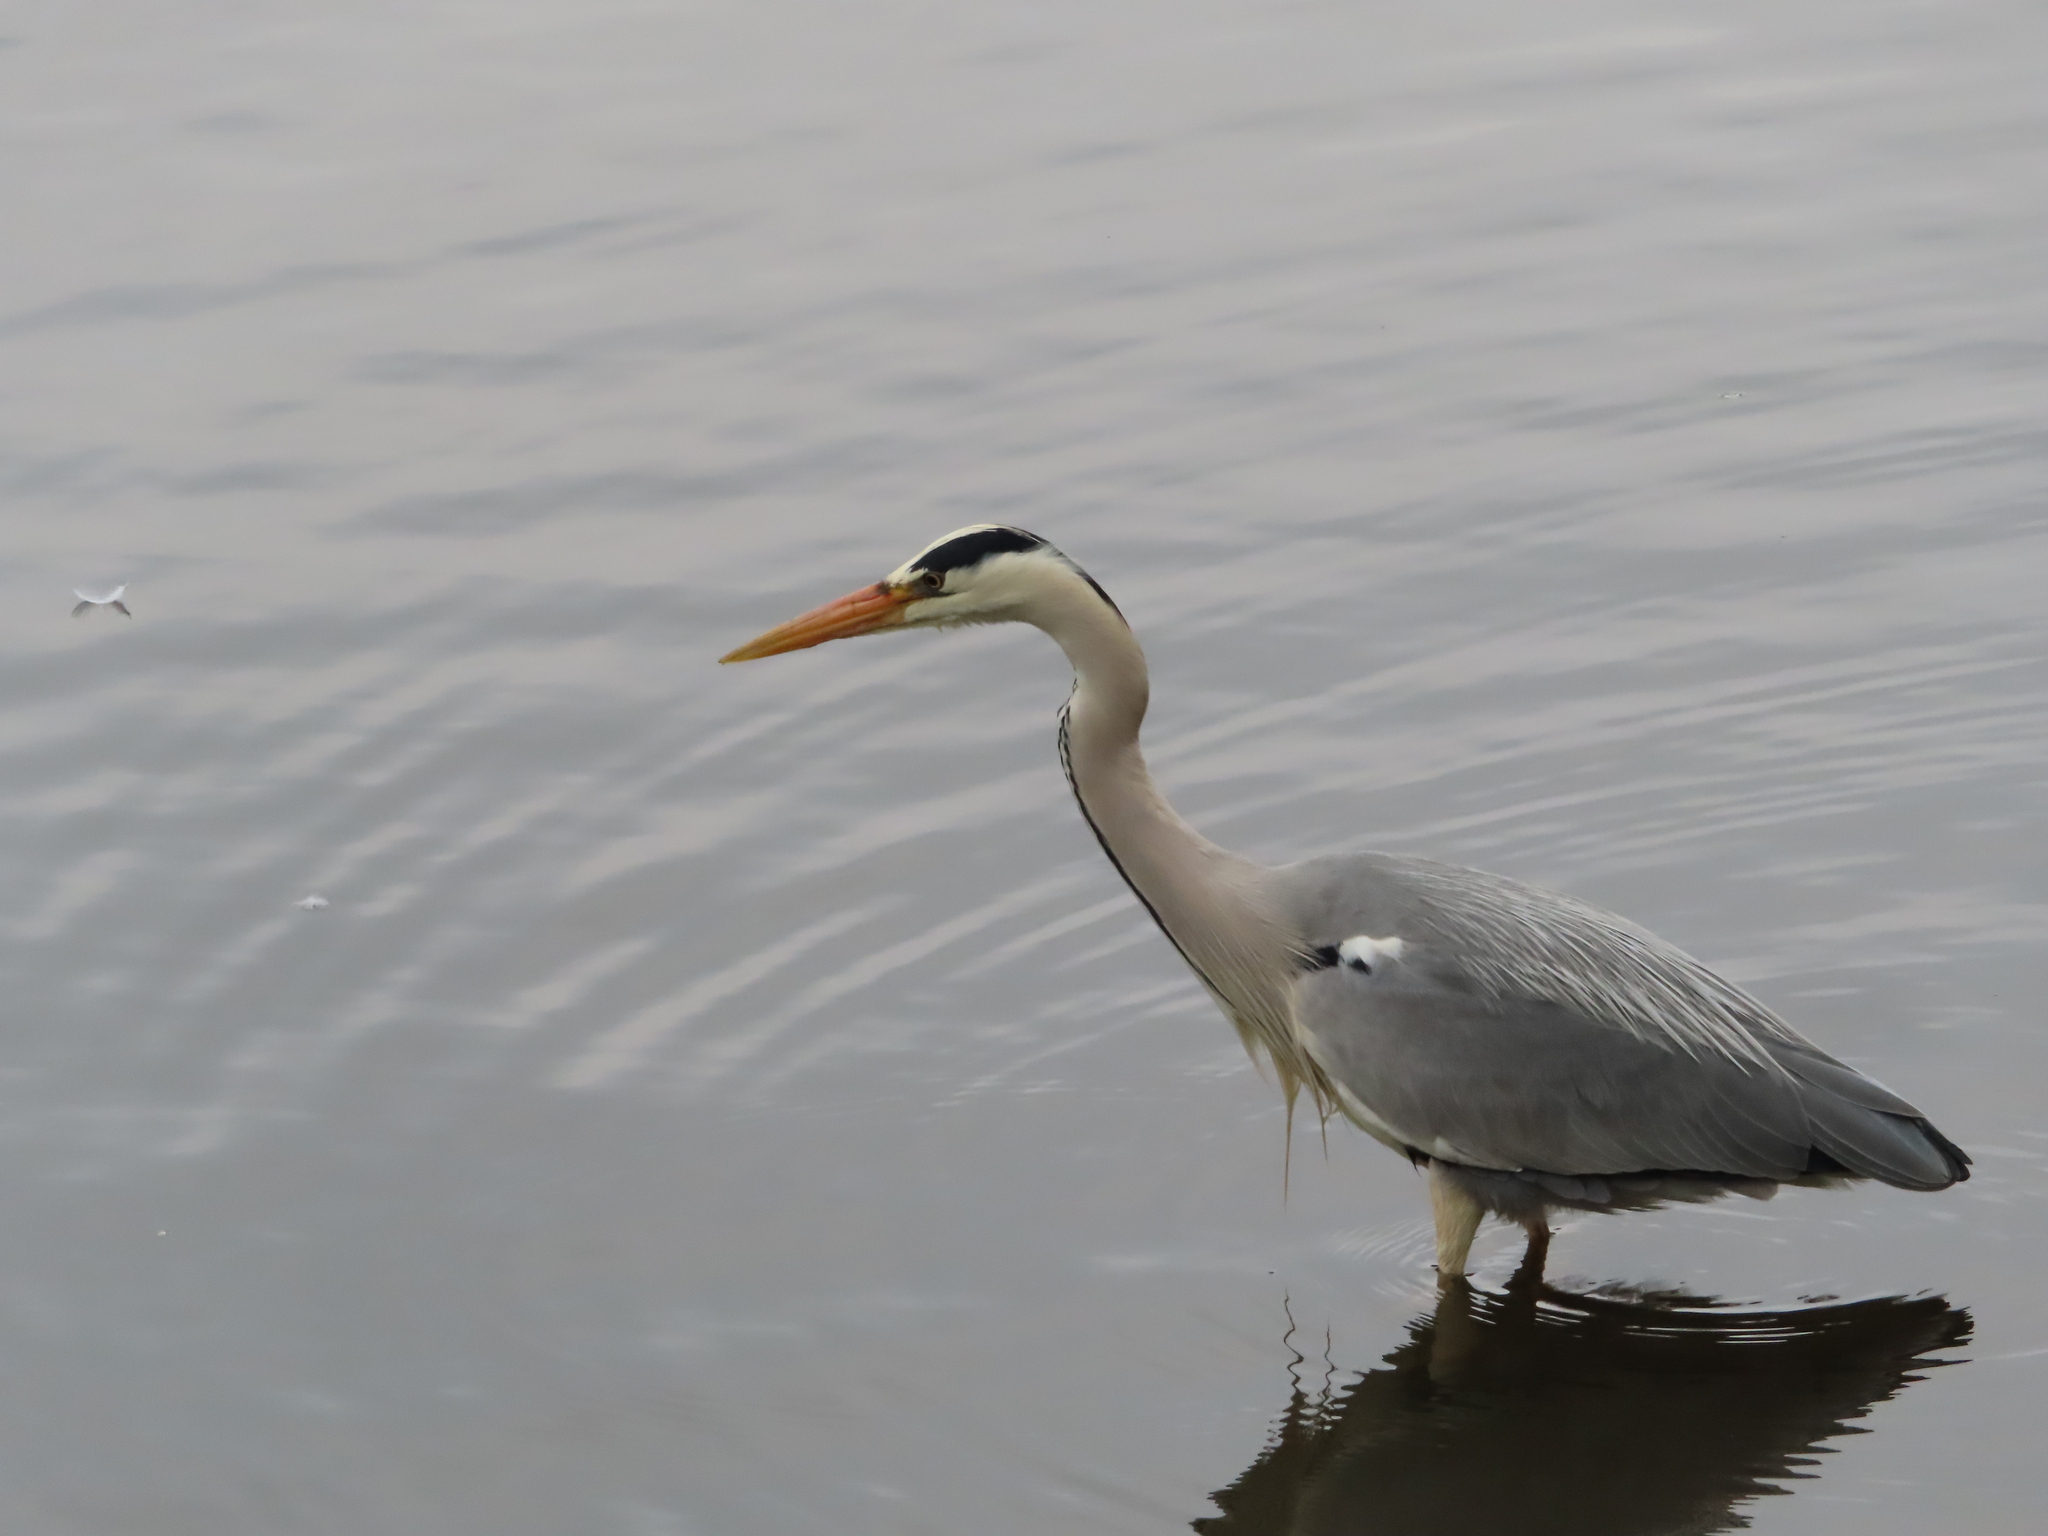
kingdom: Animalia
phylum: Chordata
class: Aves
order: Pelecaniformes
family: Ardeidae
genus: Ardea
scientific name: Ardea cinerea
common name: Grey heron
